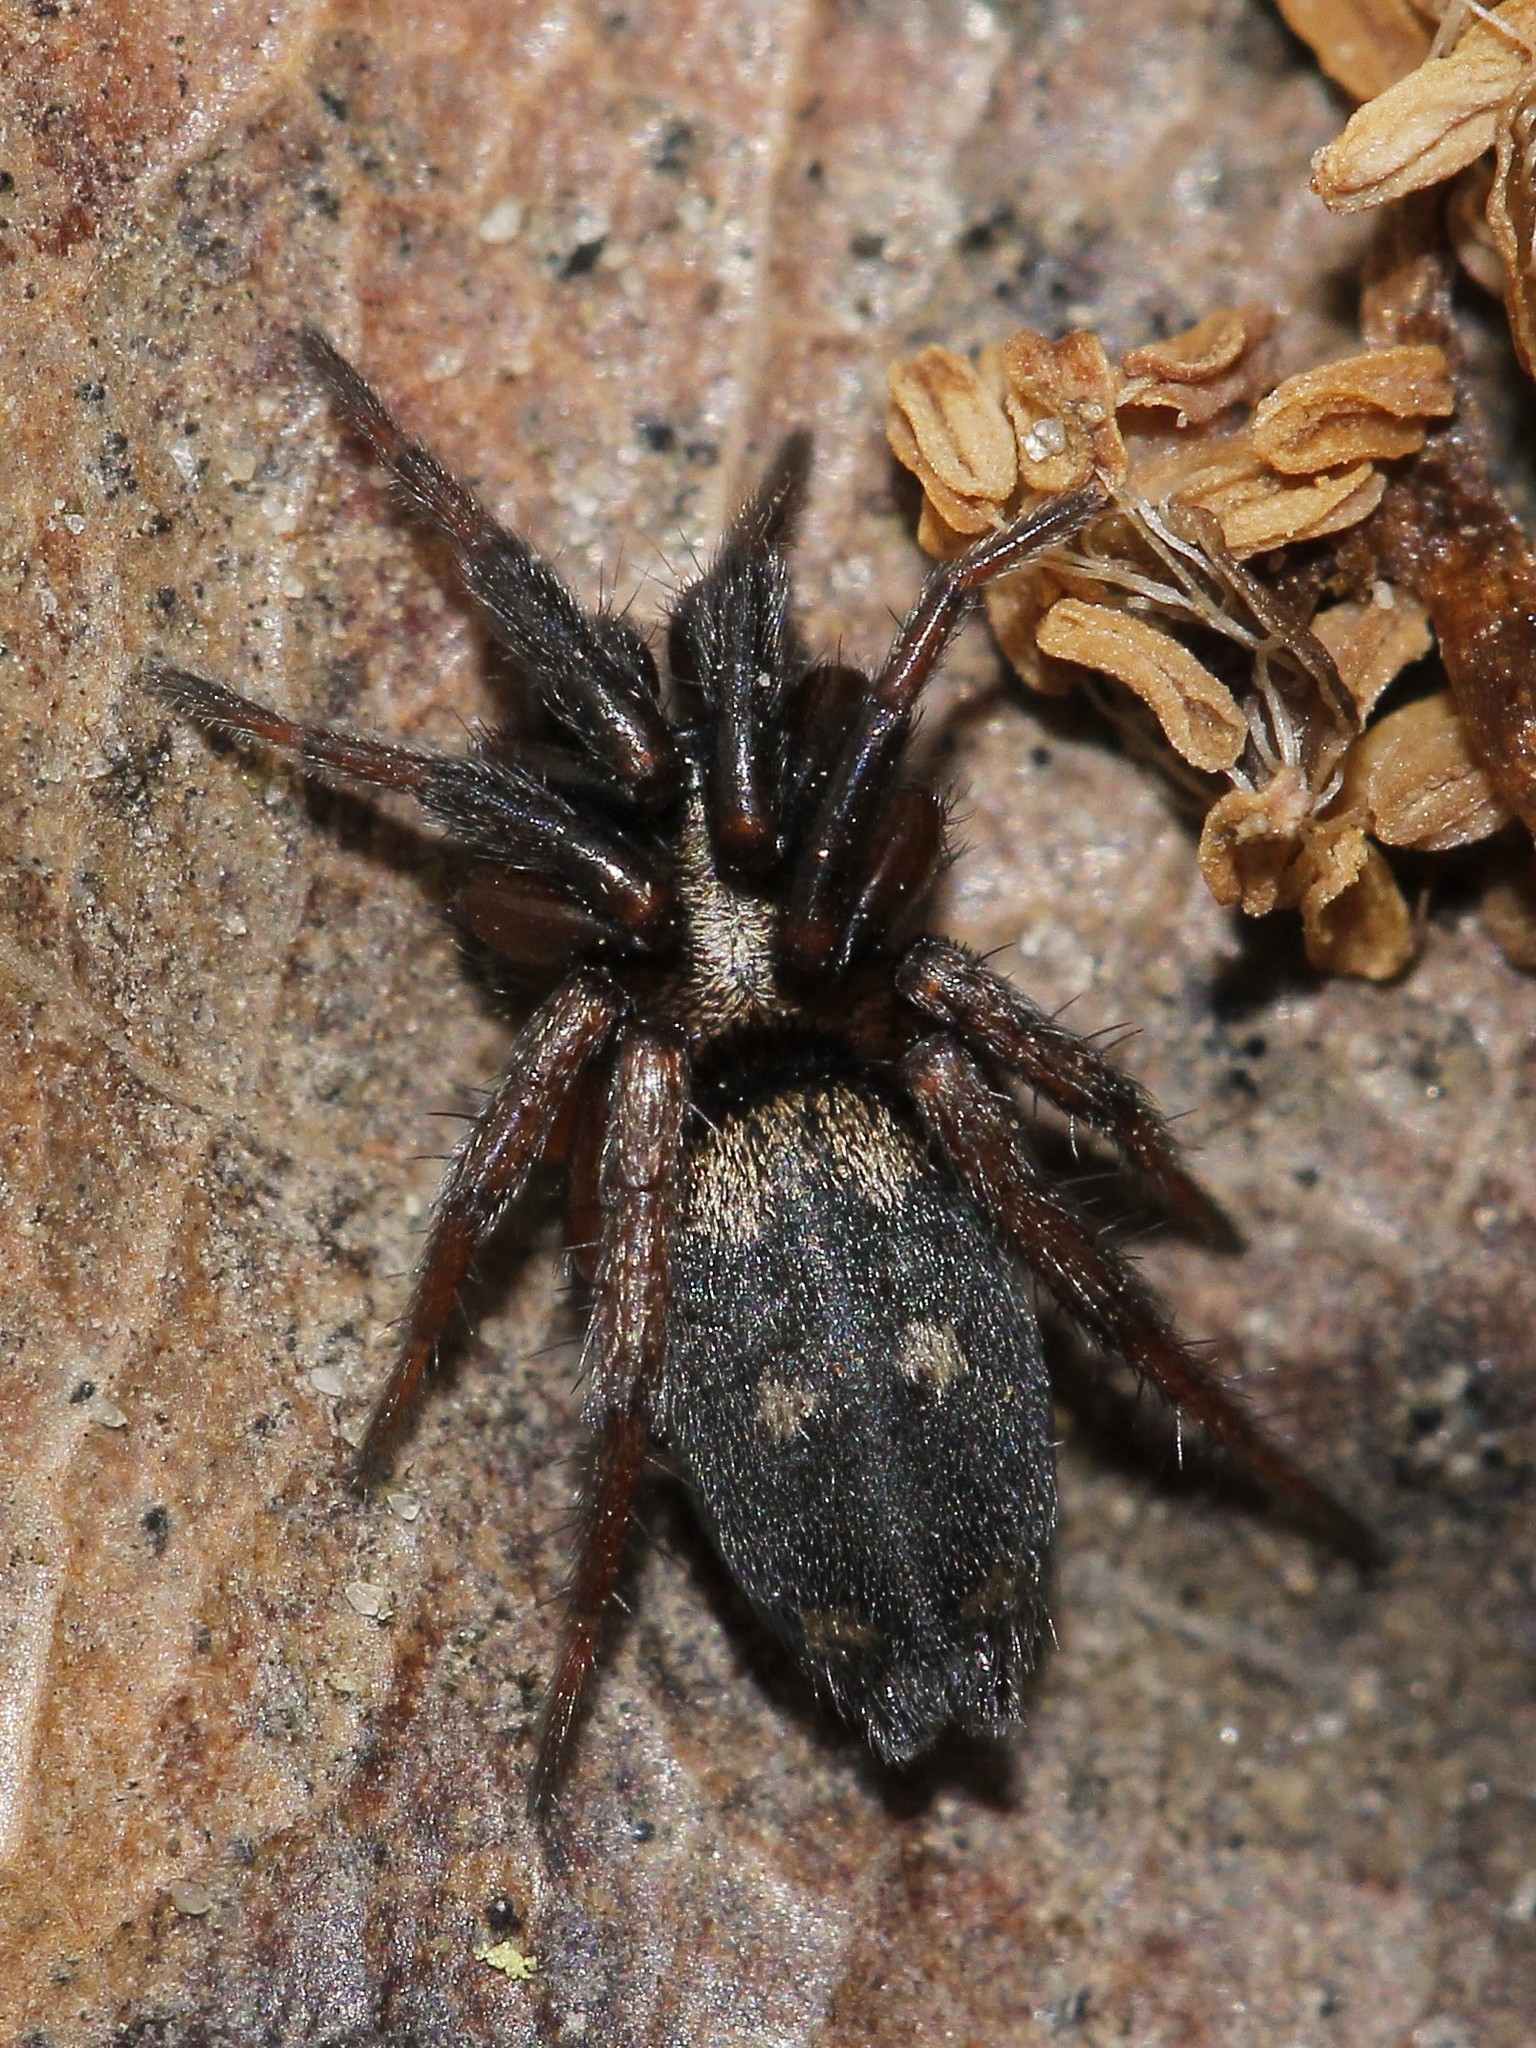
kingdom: Animalia
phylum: Arthropoda
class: Arachnida
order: Araneae
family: Gnaphosidae
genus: Callilepis
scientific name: Callilepis nocturna
